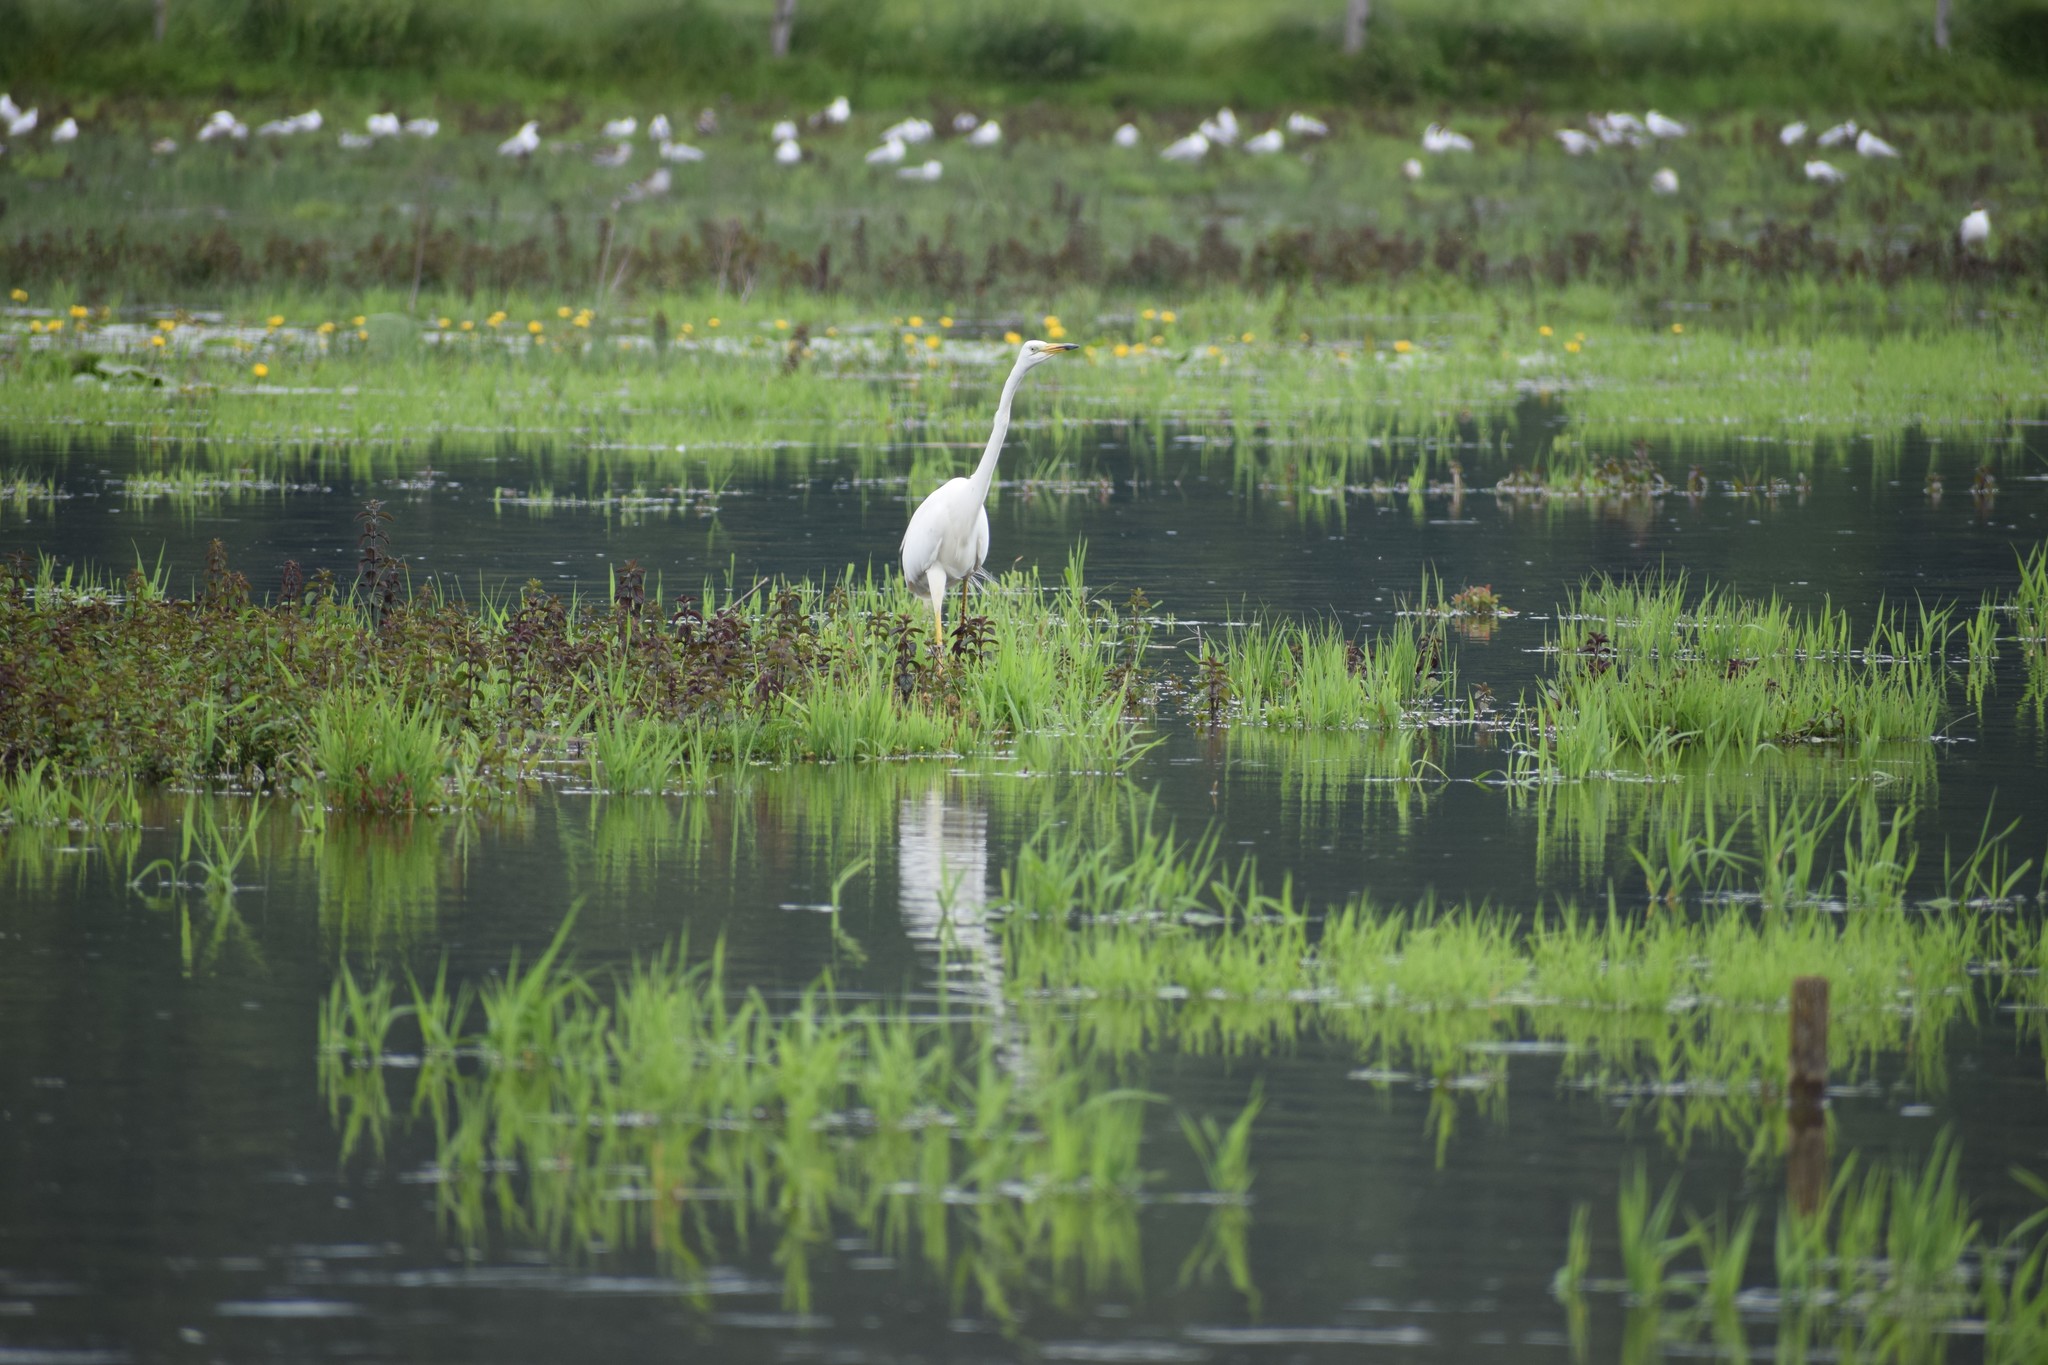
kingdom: Animalia
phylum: Chordata
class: Aves
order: Pelecaniformes
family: Ardeidae
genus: Ardea
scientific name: Ardea alba
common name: Great egret
